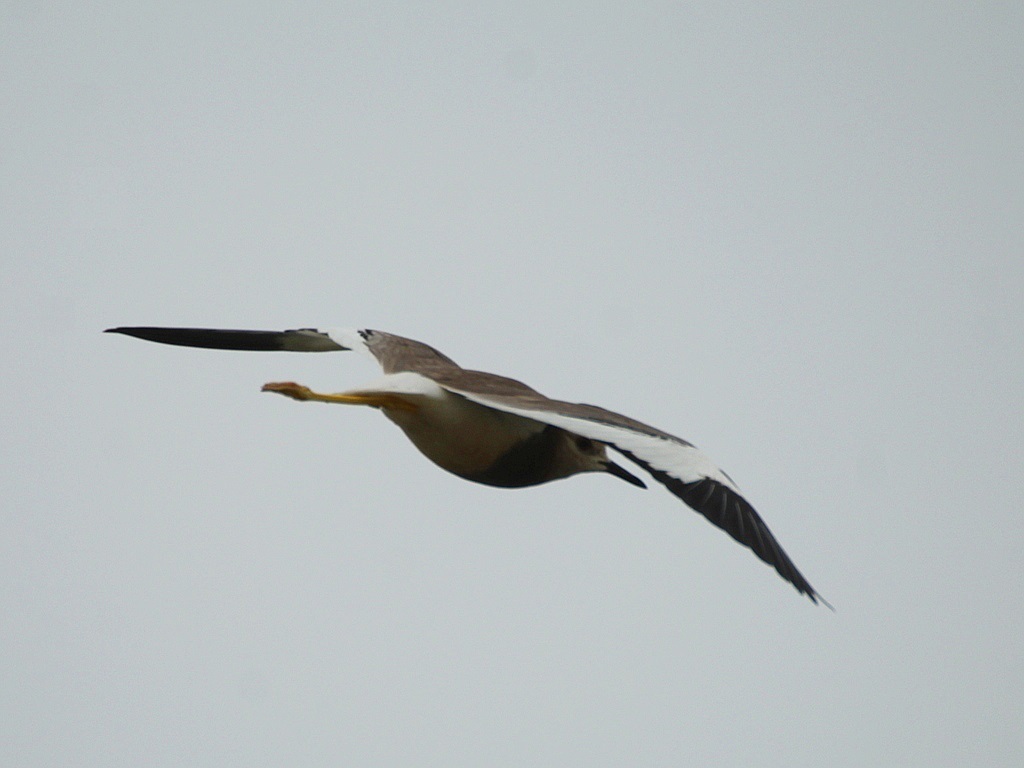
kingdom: Animalia
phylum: Chordata
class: Aves
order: Charadriiformes
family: Charadriidae
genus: Vanellus
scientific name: Vanellus leucurus
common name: White-tailed lapwing
